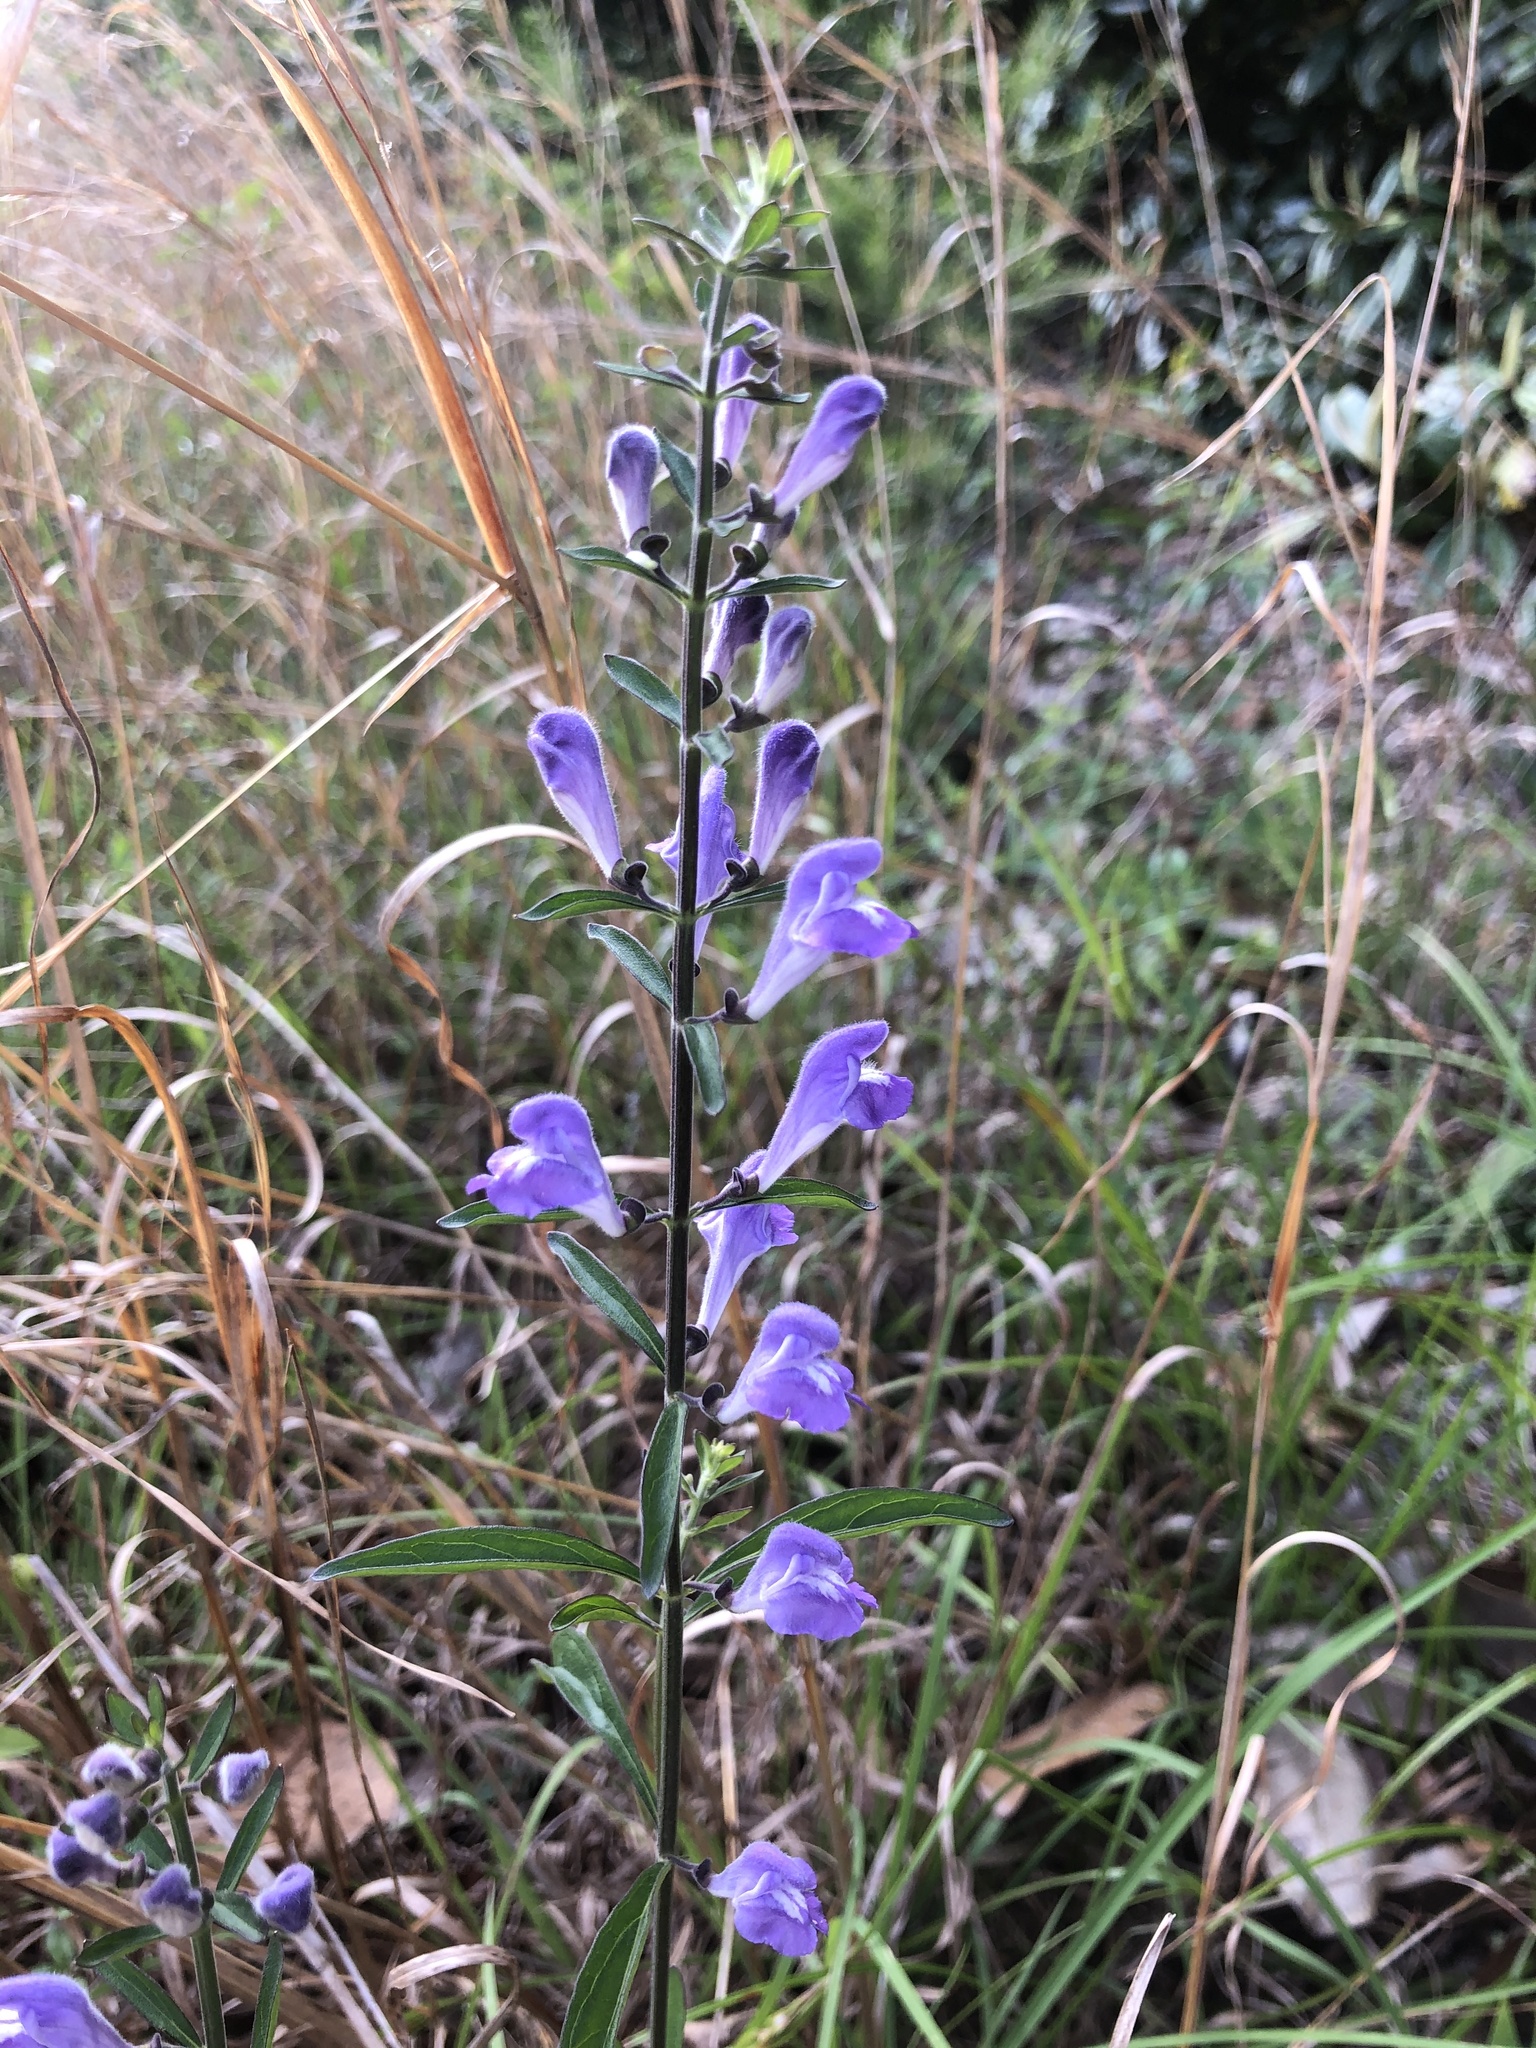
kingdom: Plantae
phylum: Tracheophyta
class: Magnoliopsida
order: Lamiales
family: Lamiaceae
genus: Scutellaria
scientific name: Scutellaria integrifolia
